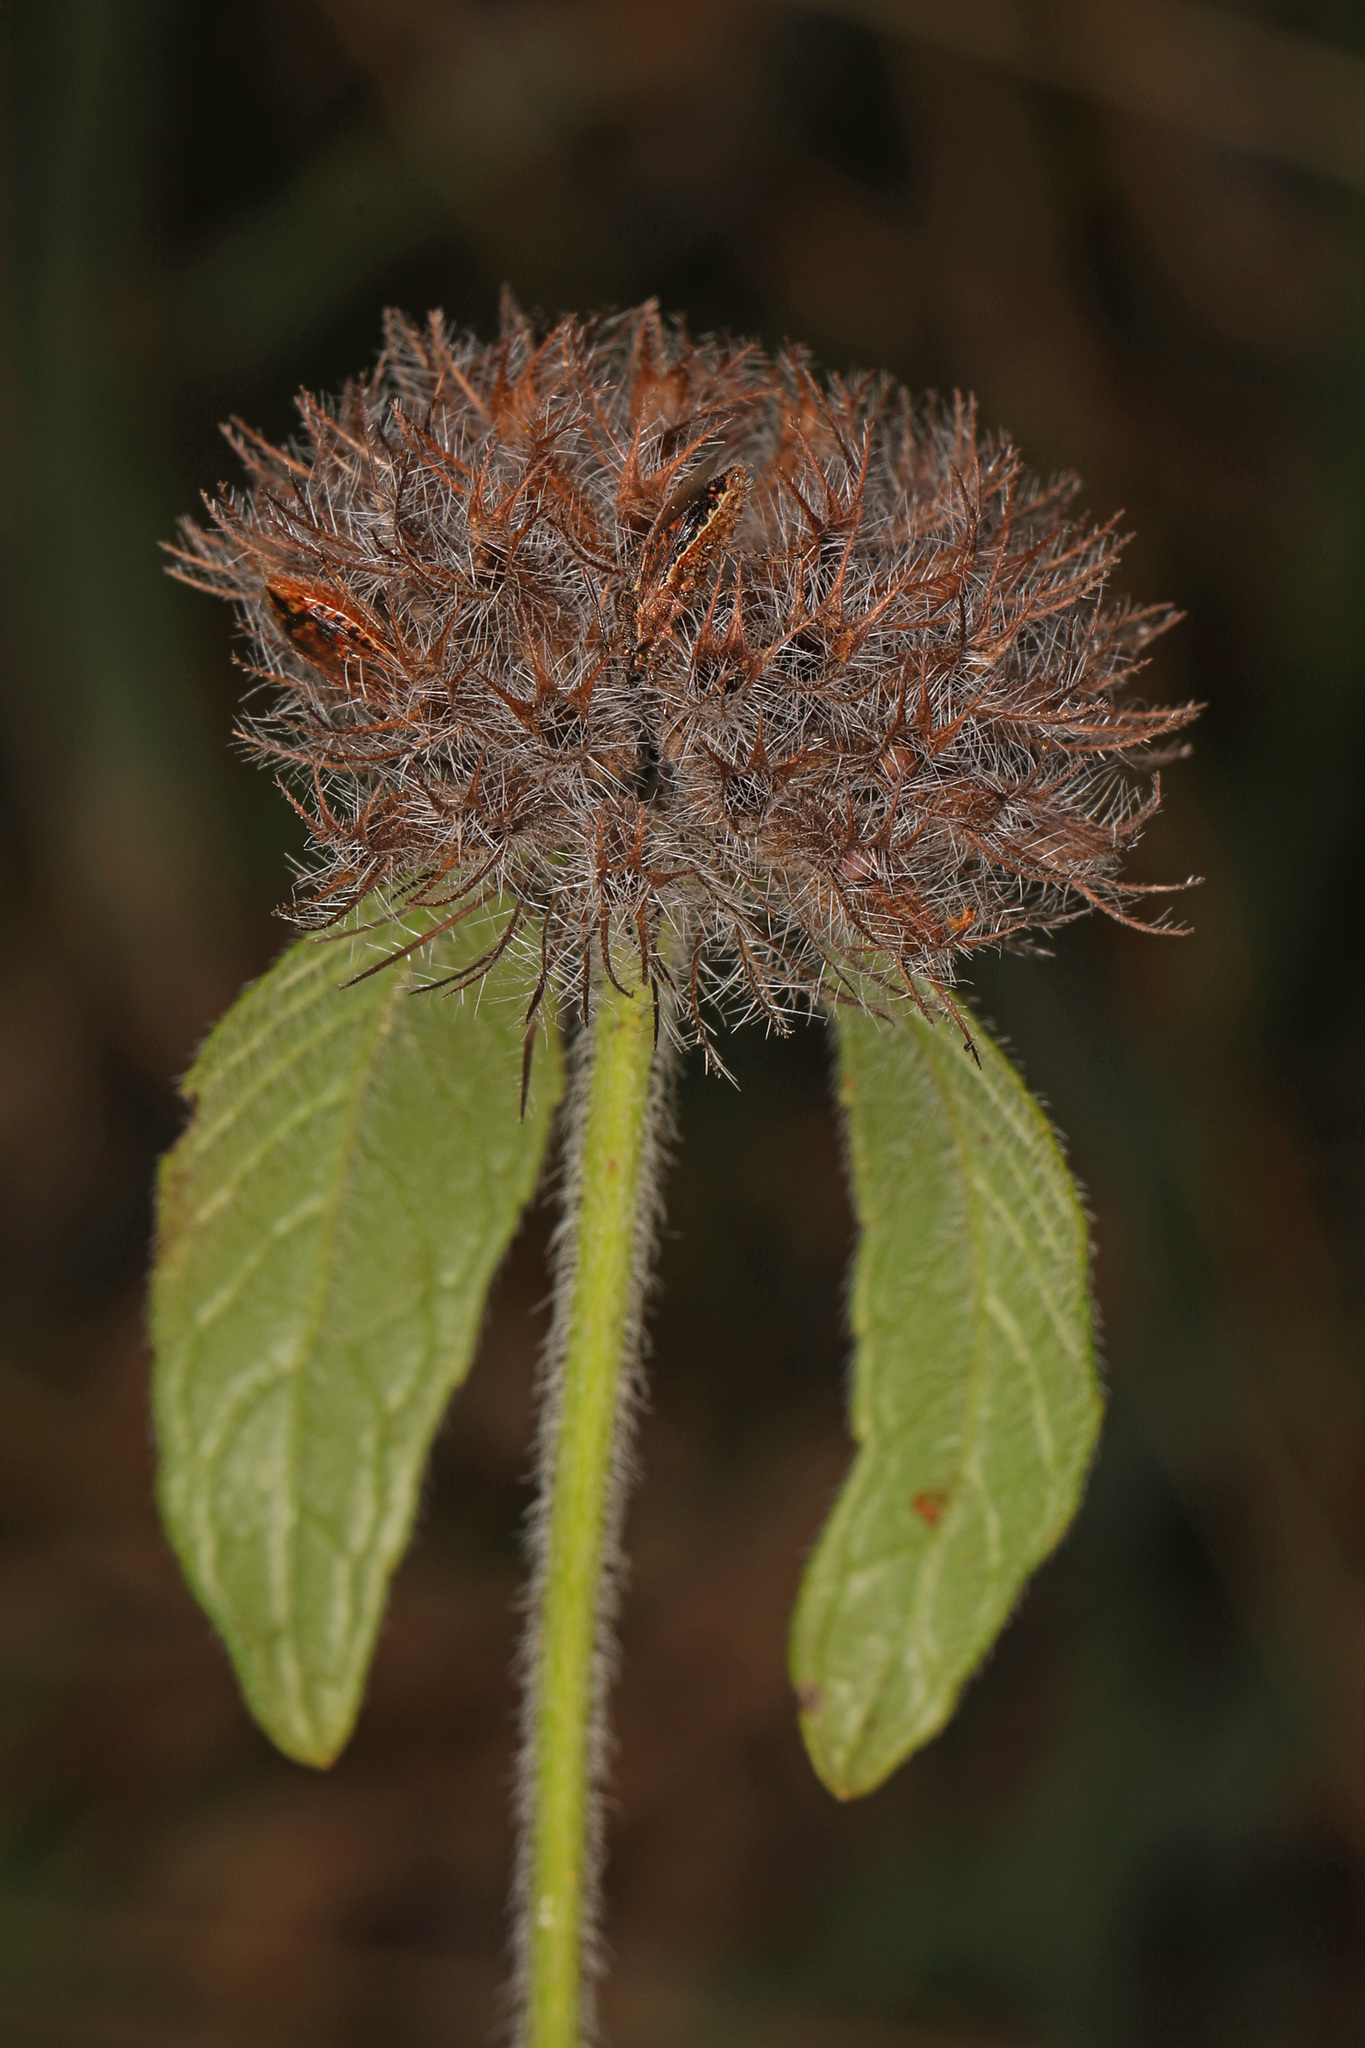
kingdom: Plantae
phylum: Tracheophyta
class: Magnoliopsida
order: Lamiales
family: Lamiaceae
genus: Clinopodium
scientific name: Clinopodium vulgare
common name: Wild basil
